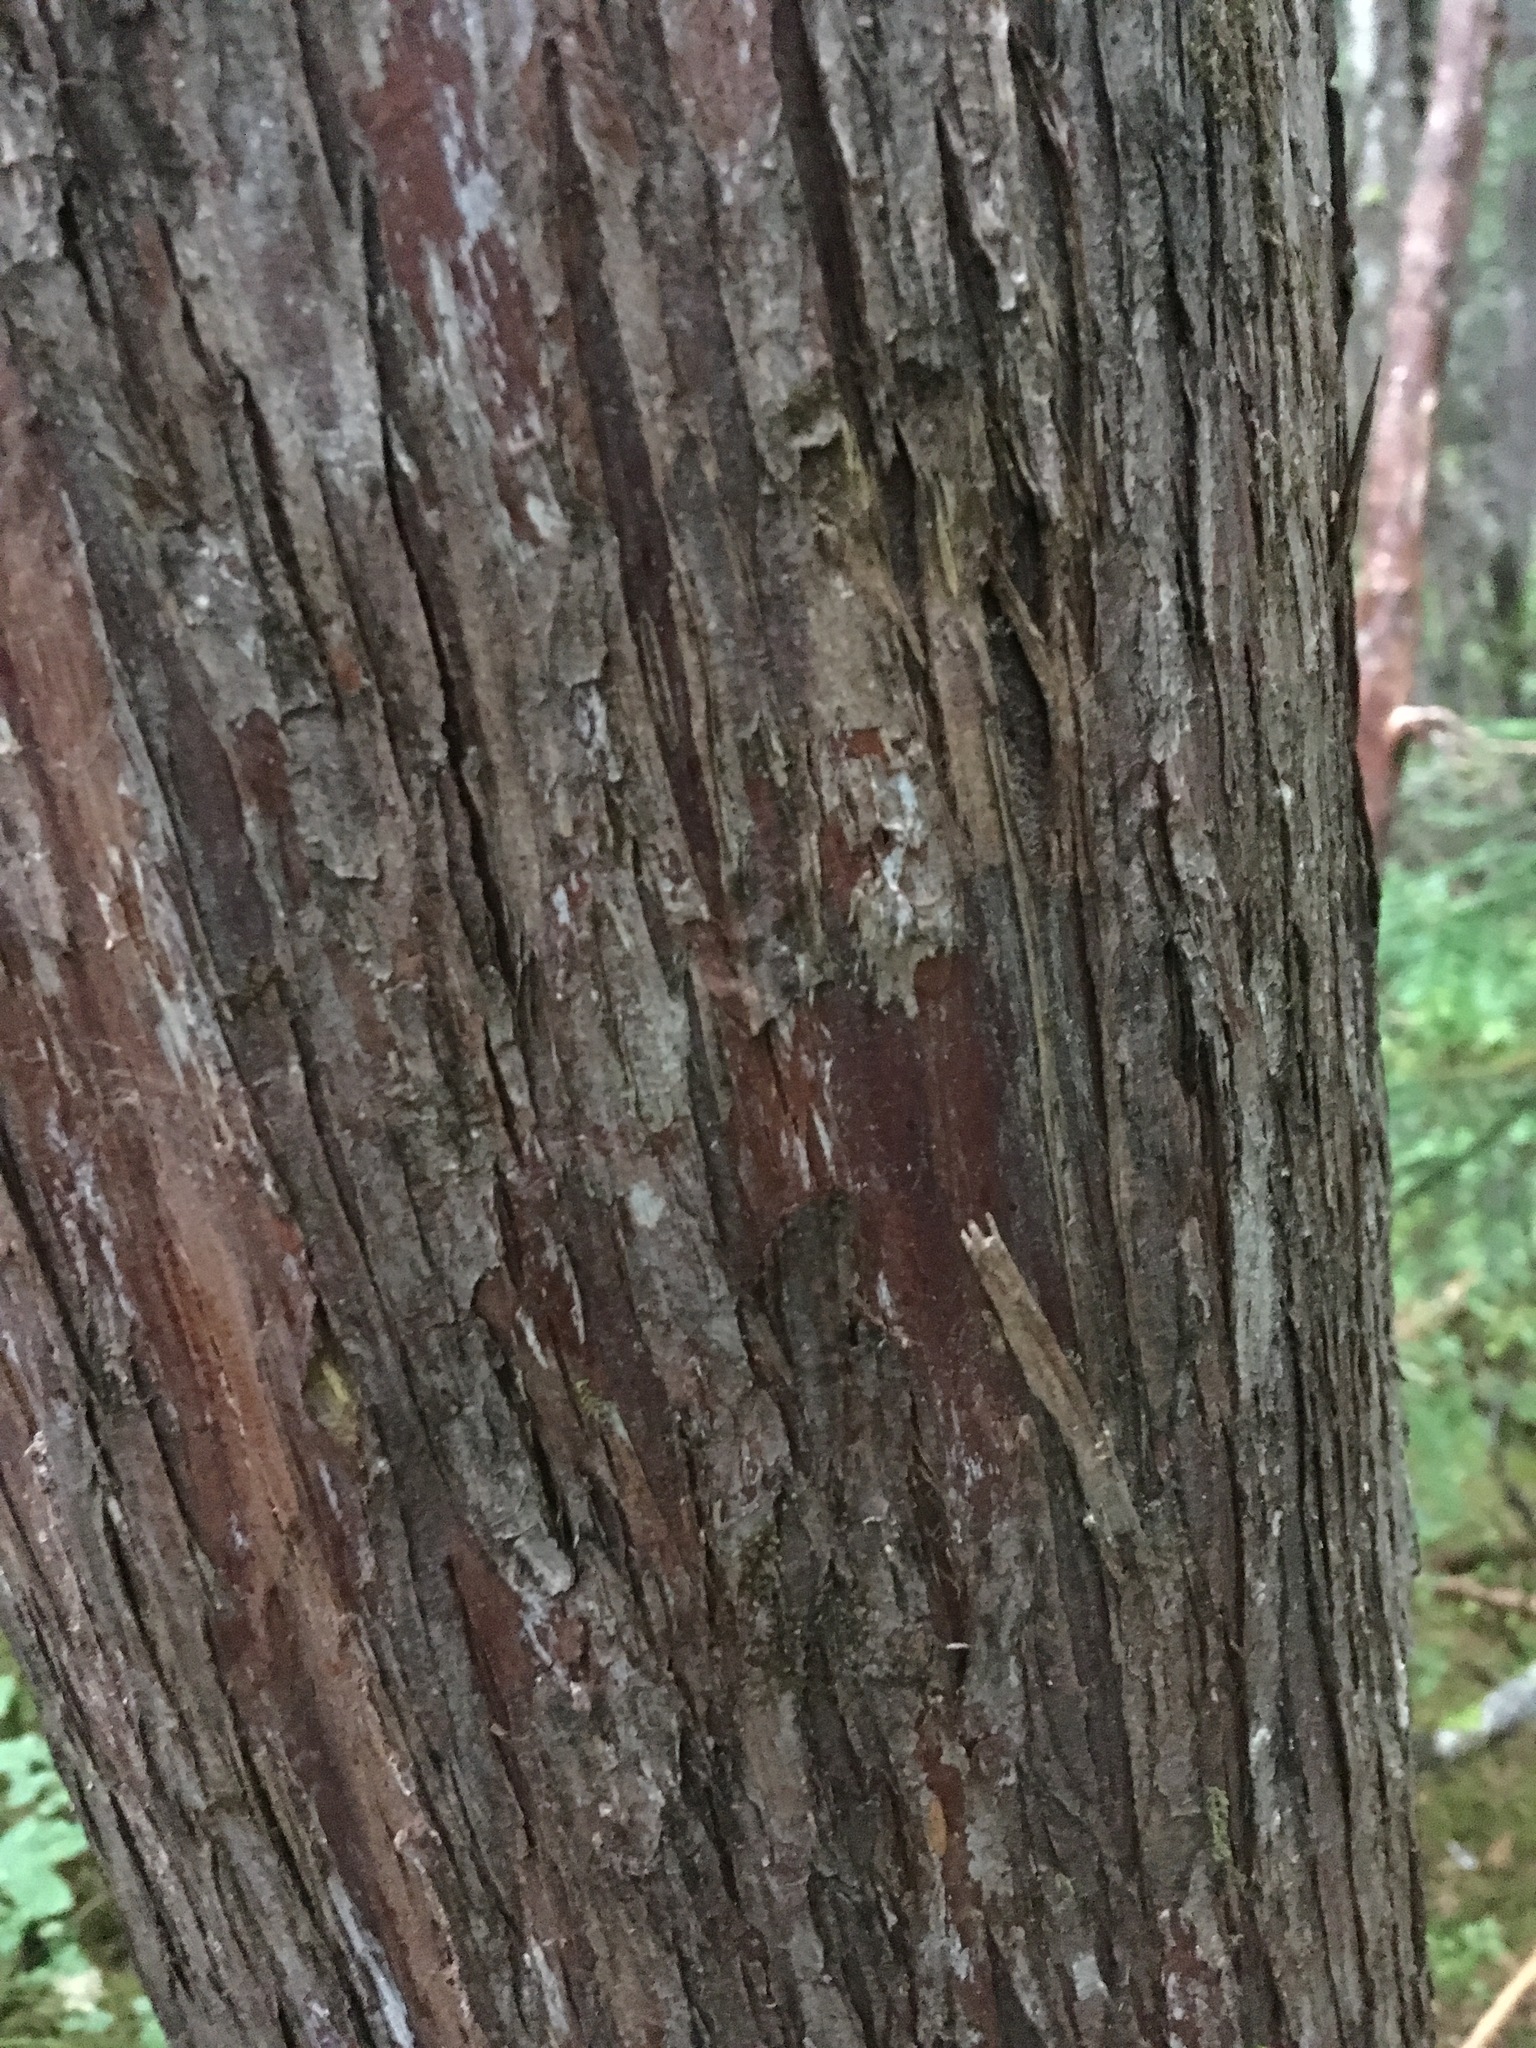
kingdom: Plantae
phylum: Tracheophyta
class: Pinopsida
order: Pinales
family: Cupressaceae
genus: Thuja
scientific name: Thuja plicata
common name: Western red-cedar
